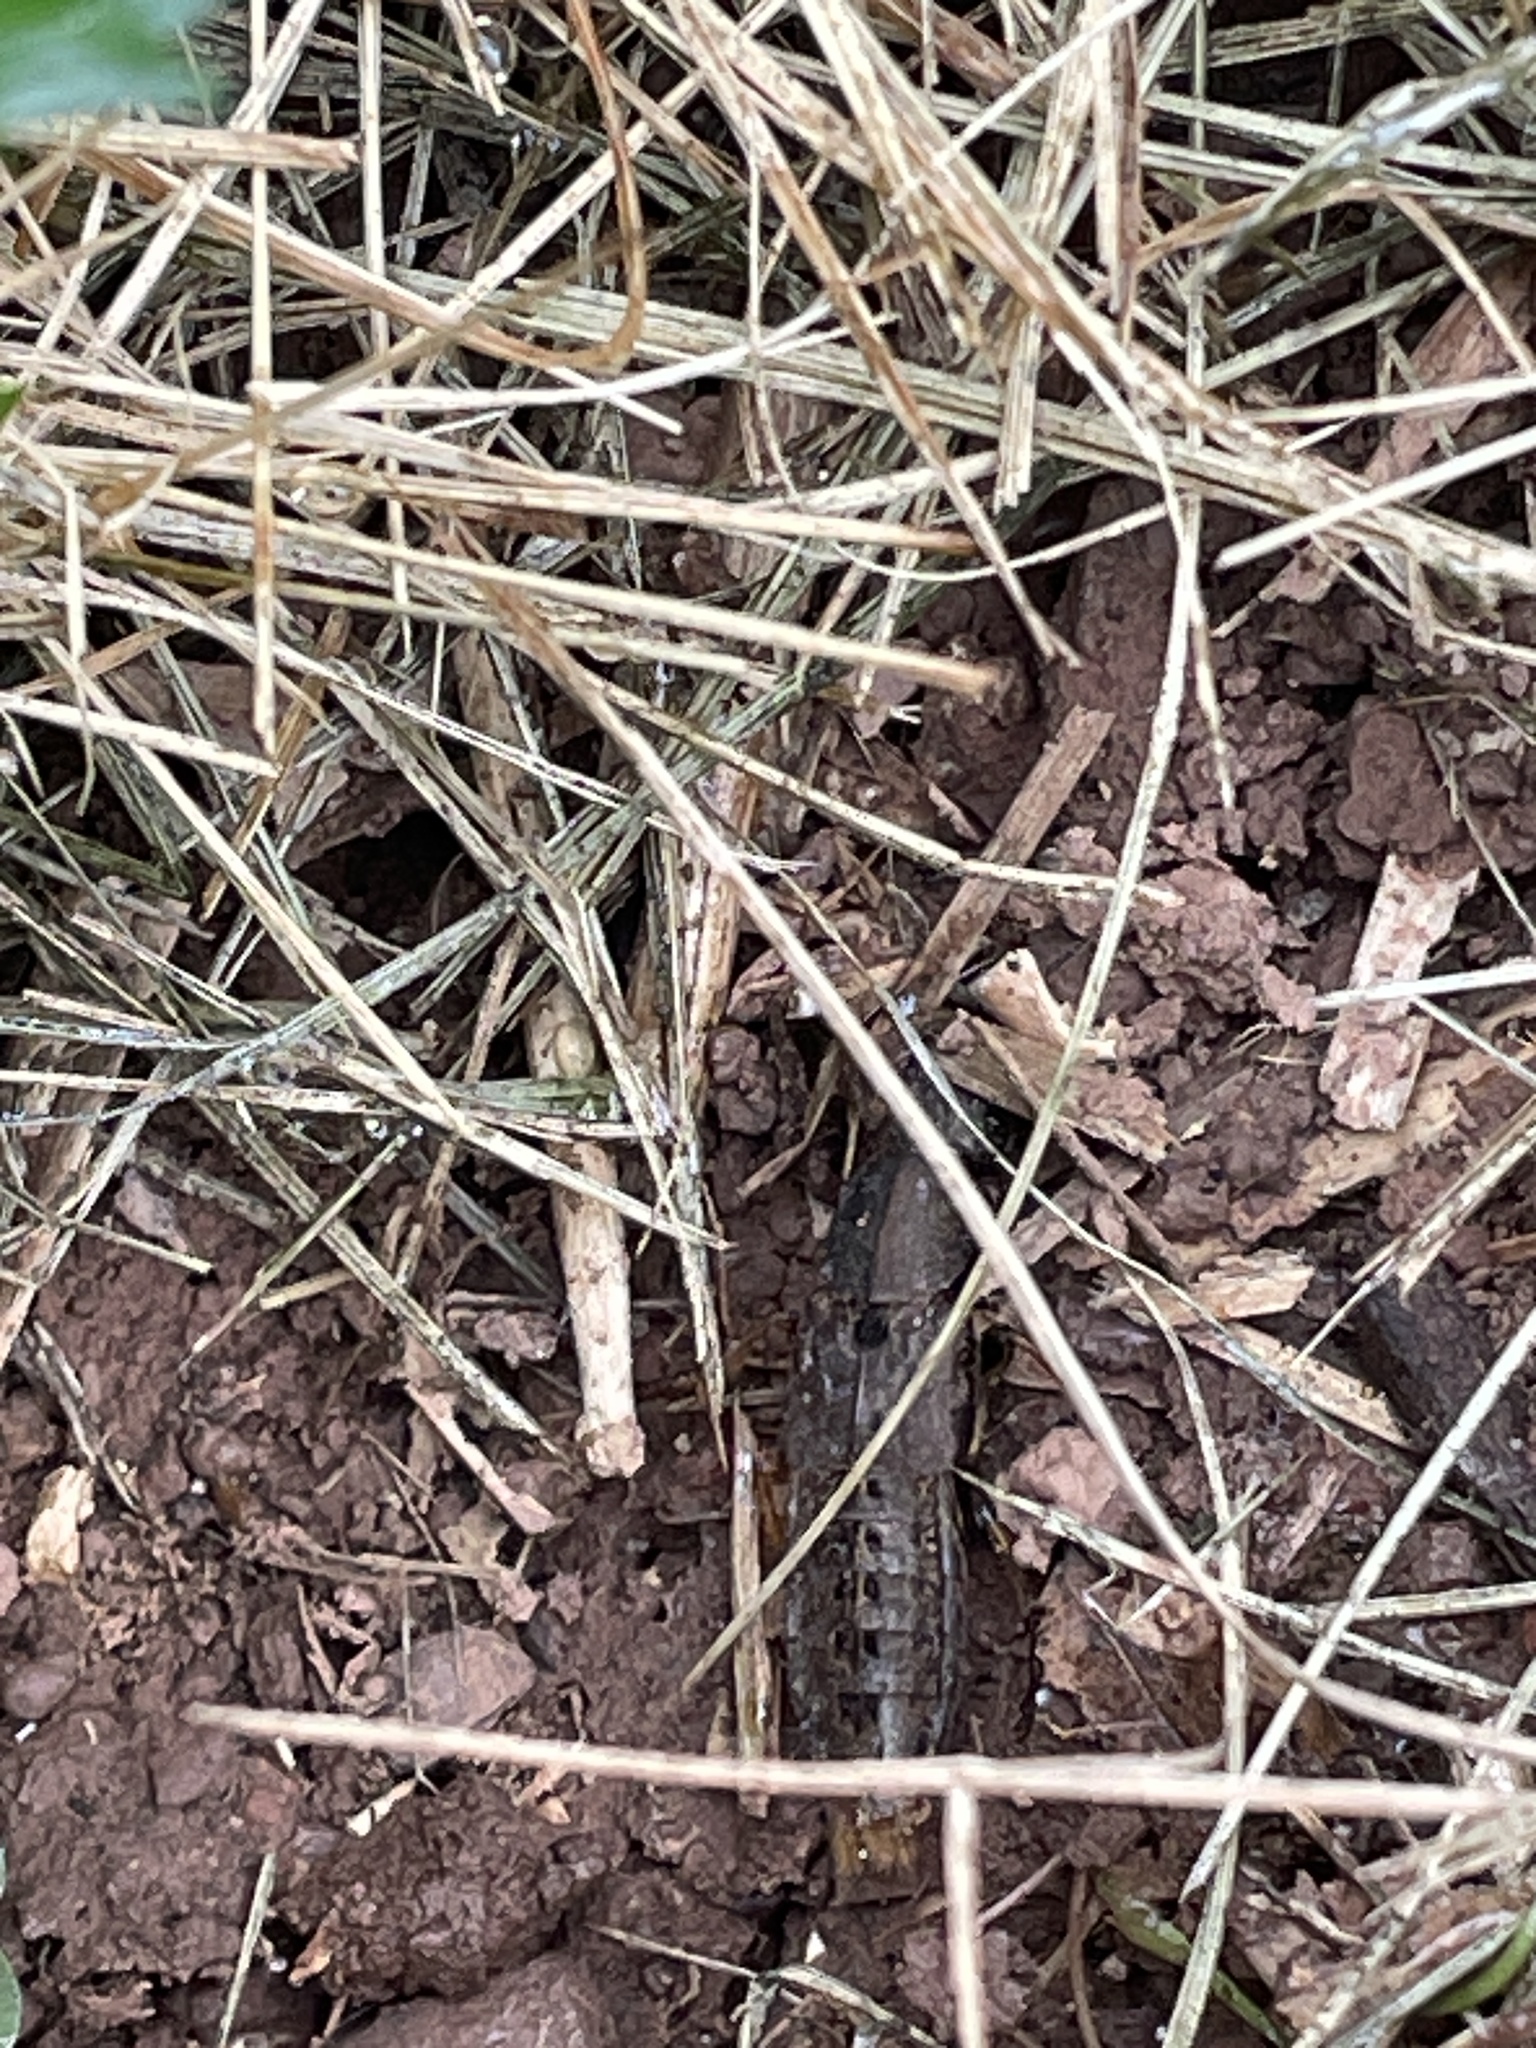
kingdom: Animalia
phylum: Arthropoda
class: Insecta
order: Coleoptera
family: Staphylinidae
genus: Platydracus
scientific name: Platydracus maculosus
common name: Brown rove beetle
